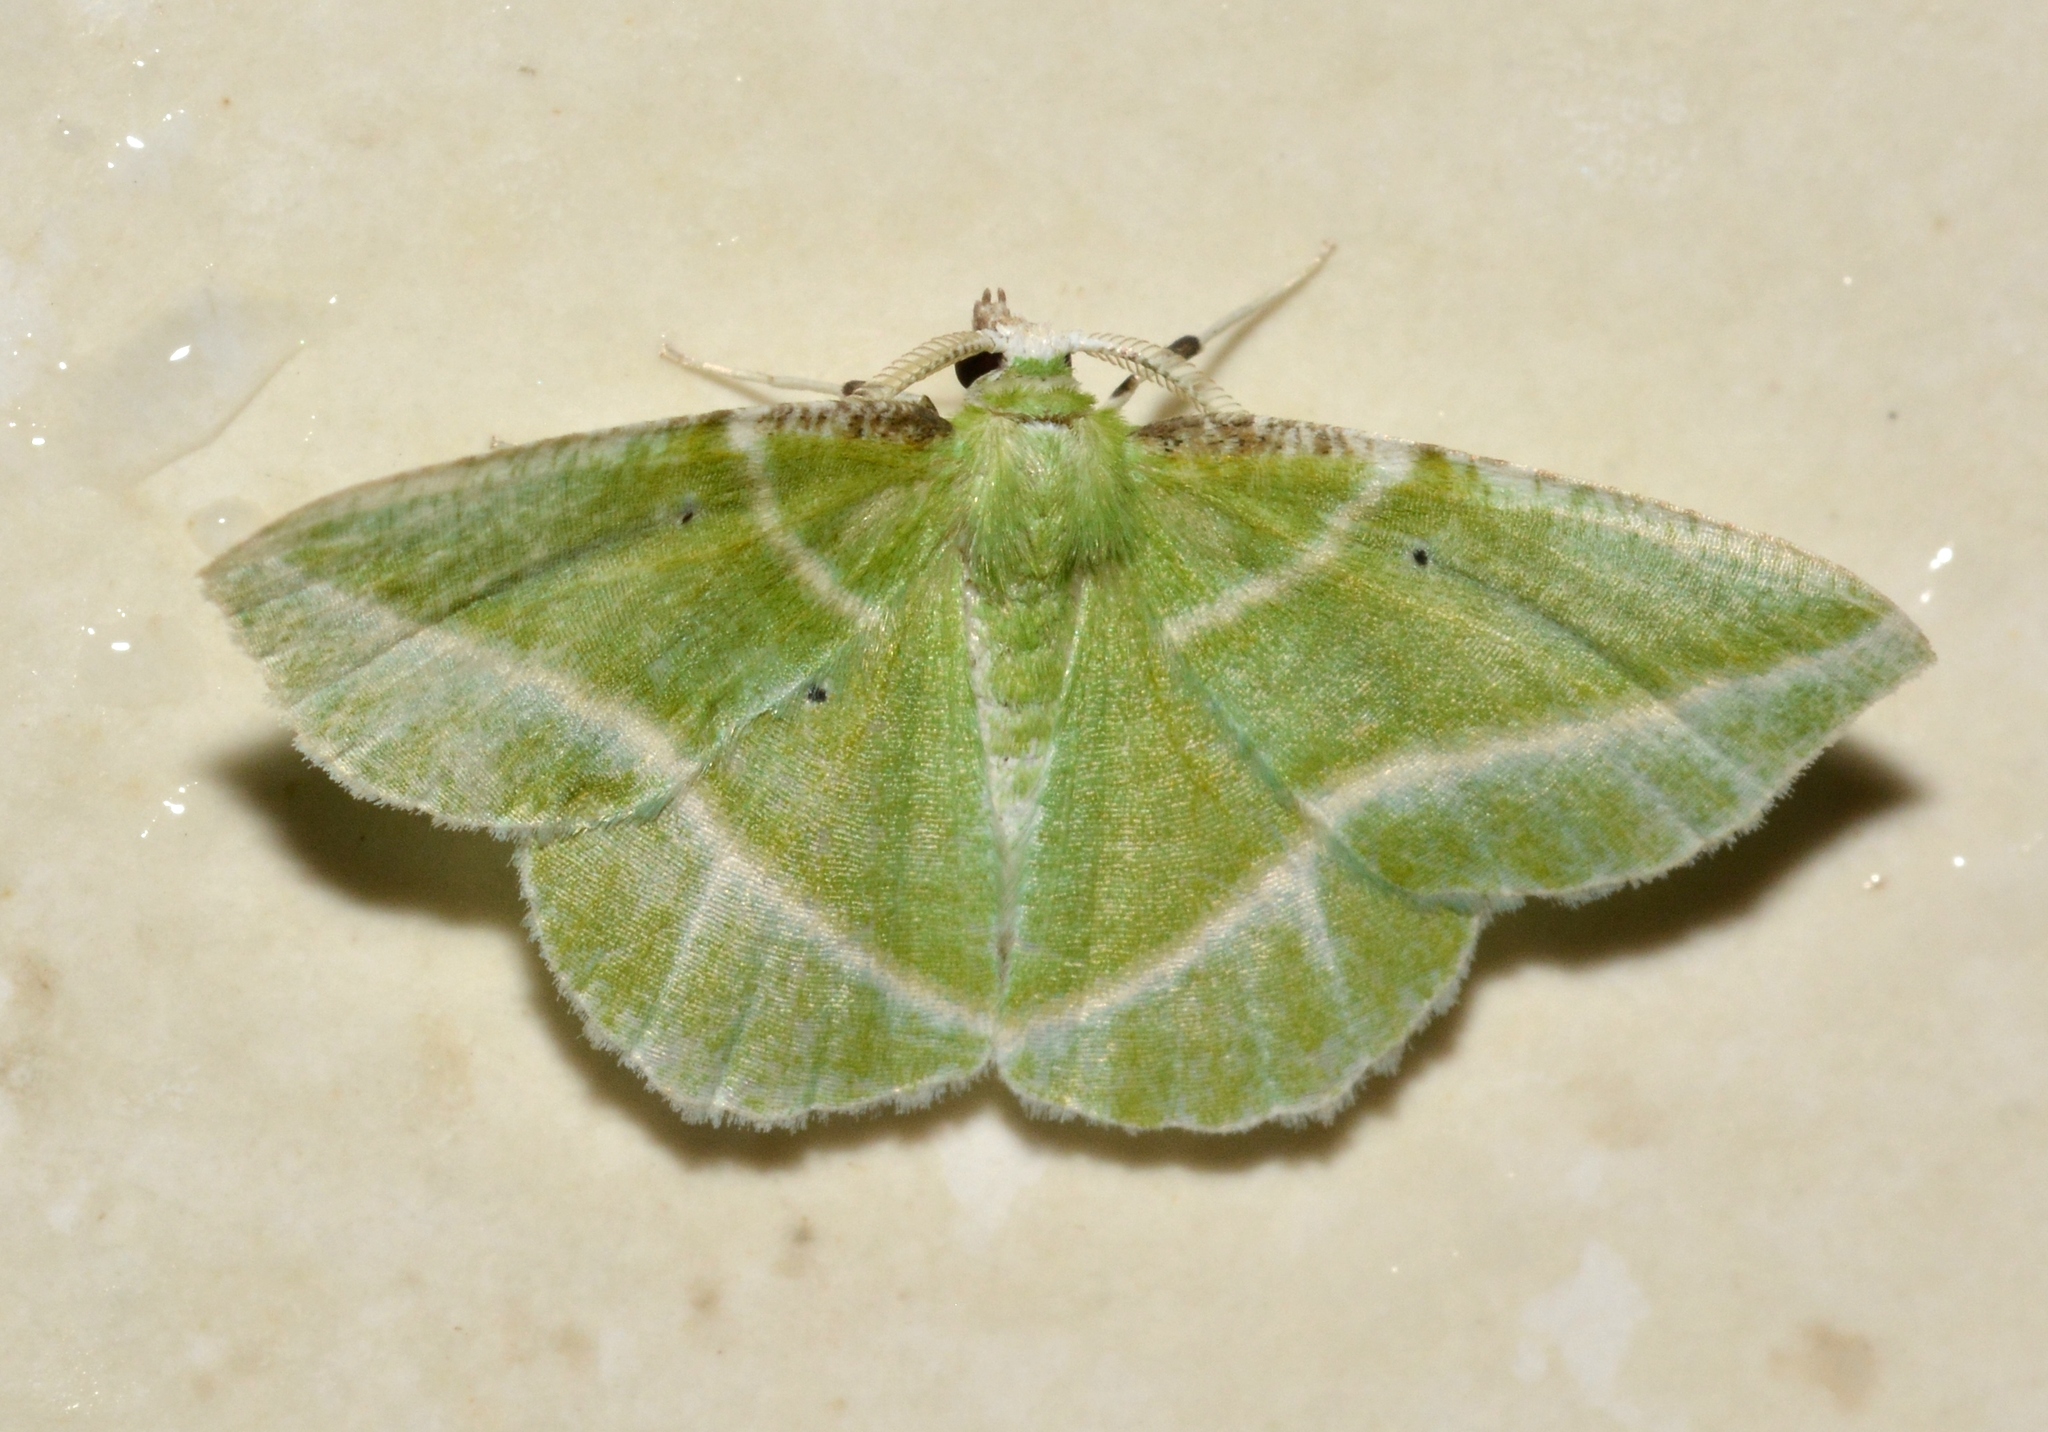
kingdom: Animalia
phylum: Arthropoda
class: Insecta
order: Lepidoptera
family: Geometridae
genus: Dichorda
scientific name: Dichorda iridaria
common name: Showy emerald
